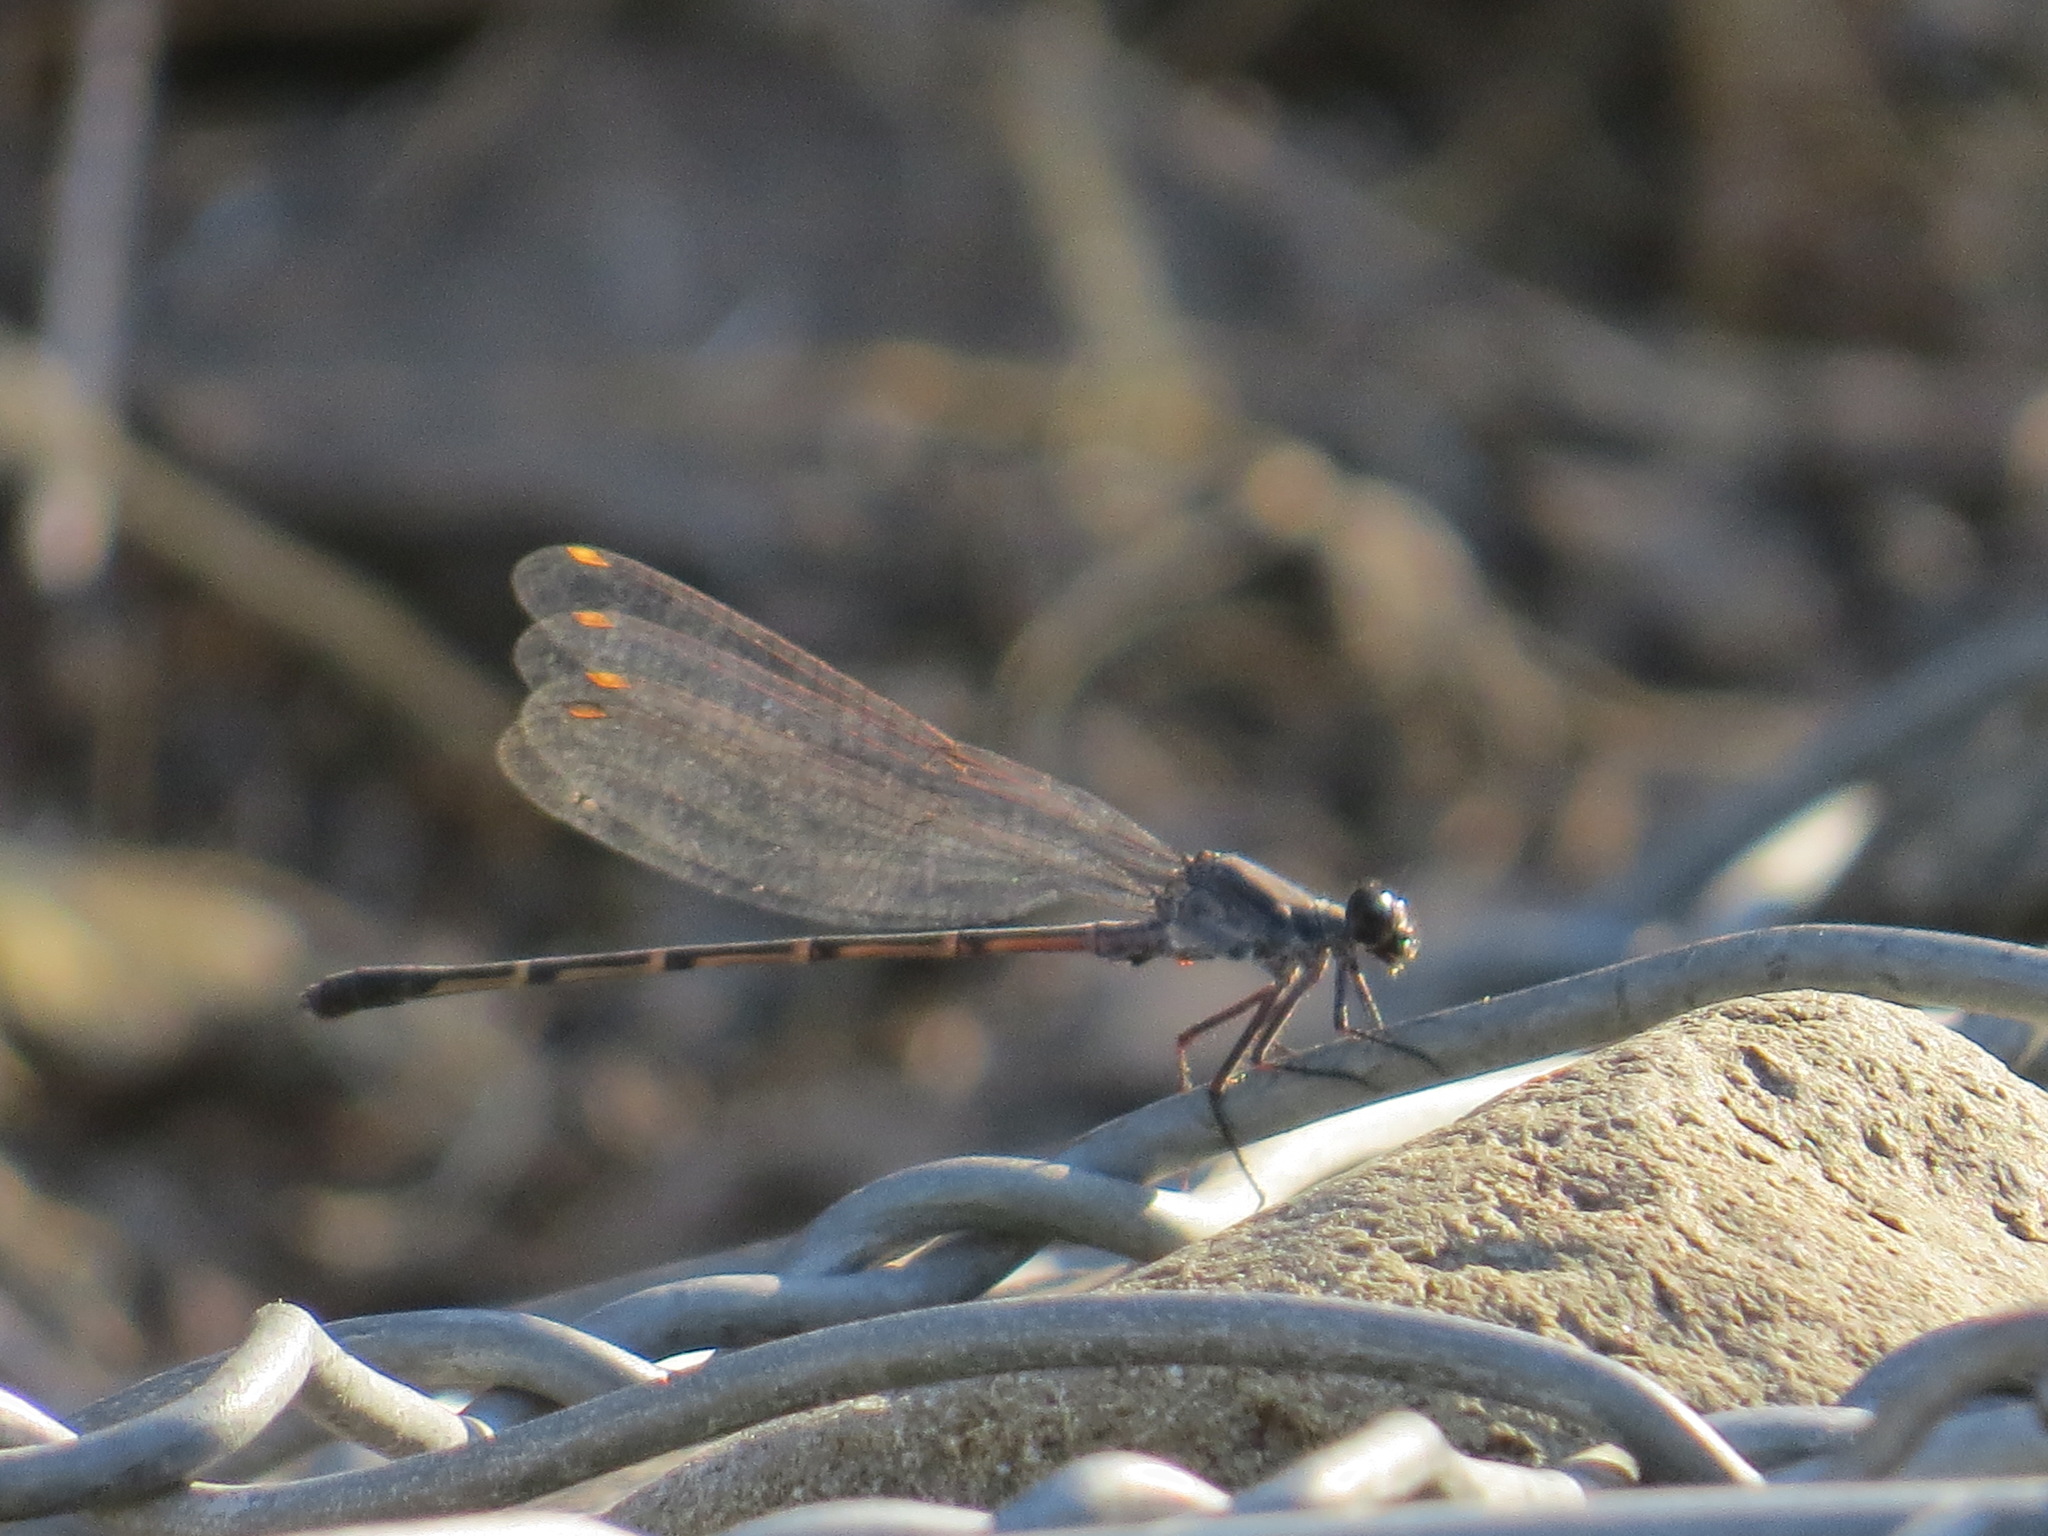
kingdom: Animalia
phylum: Arthropoda
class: Insecta
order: Odonata
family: Coenagrionidae
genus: Argia
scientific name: Argia lugens
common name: Sooty dancer
